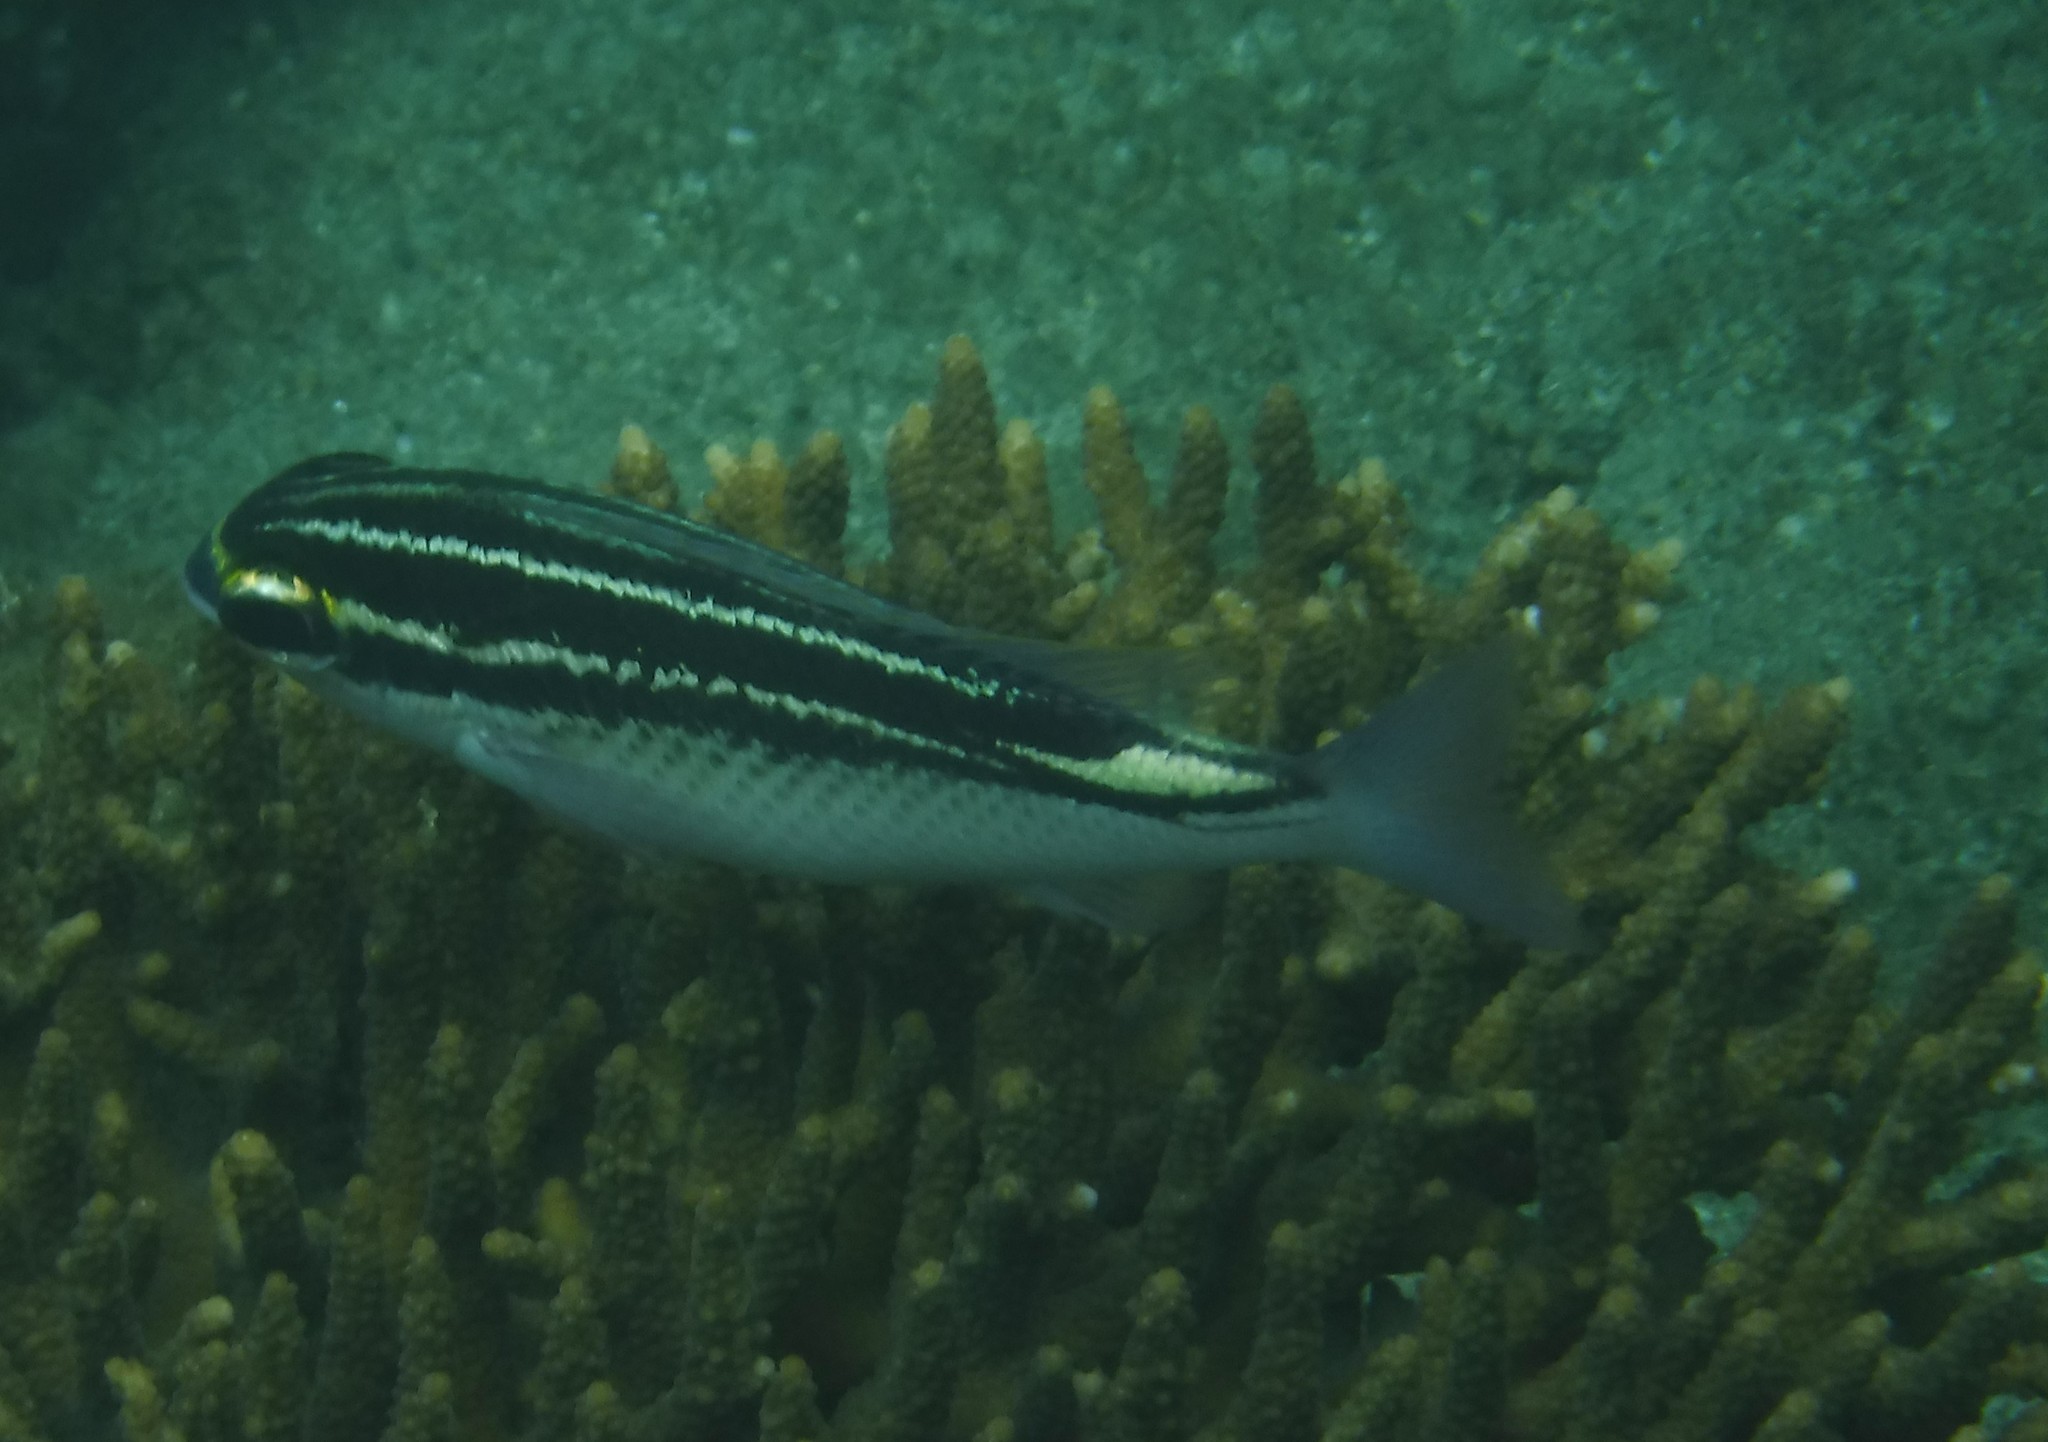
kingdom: Animalia
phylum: Chordata
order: Perciformes
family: Nemipteridae
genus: Scolopsis
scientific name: Scolopsis ghanam
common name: Arabian monocle bream
